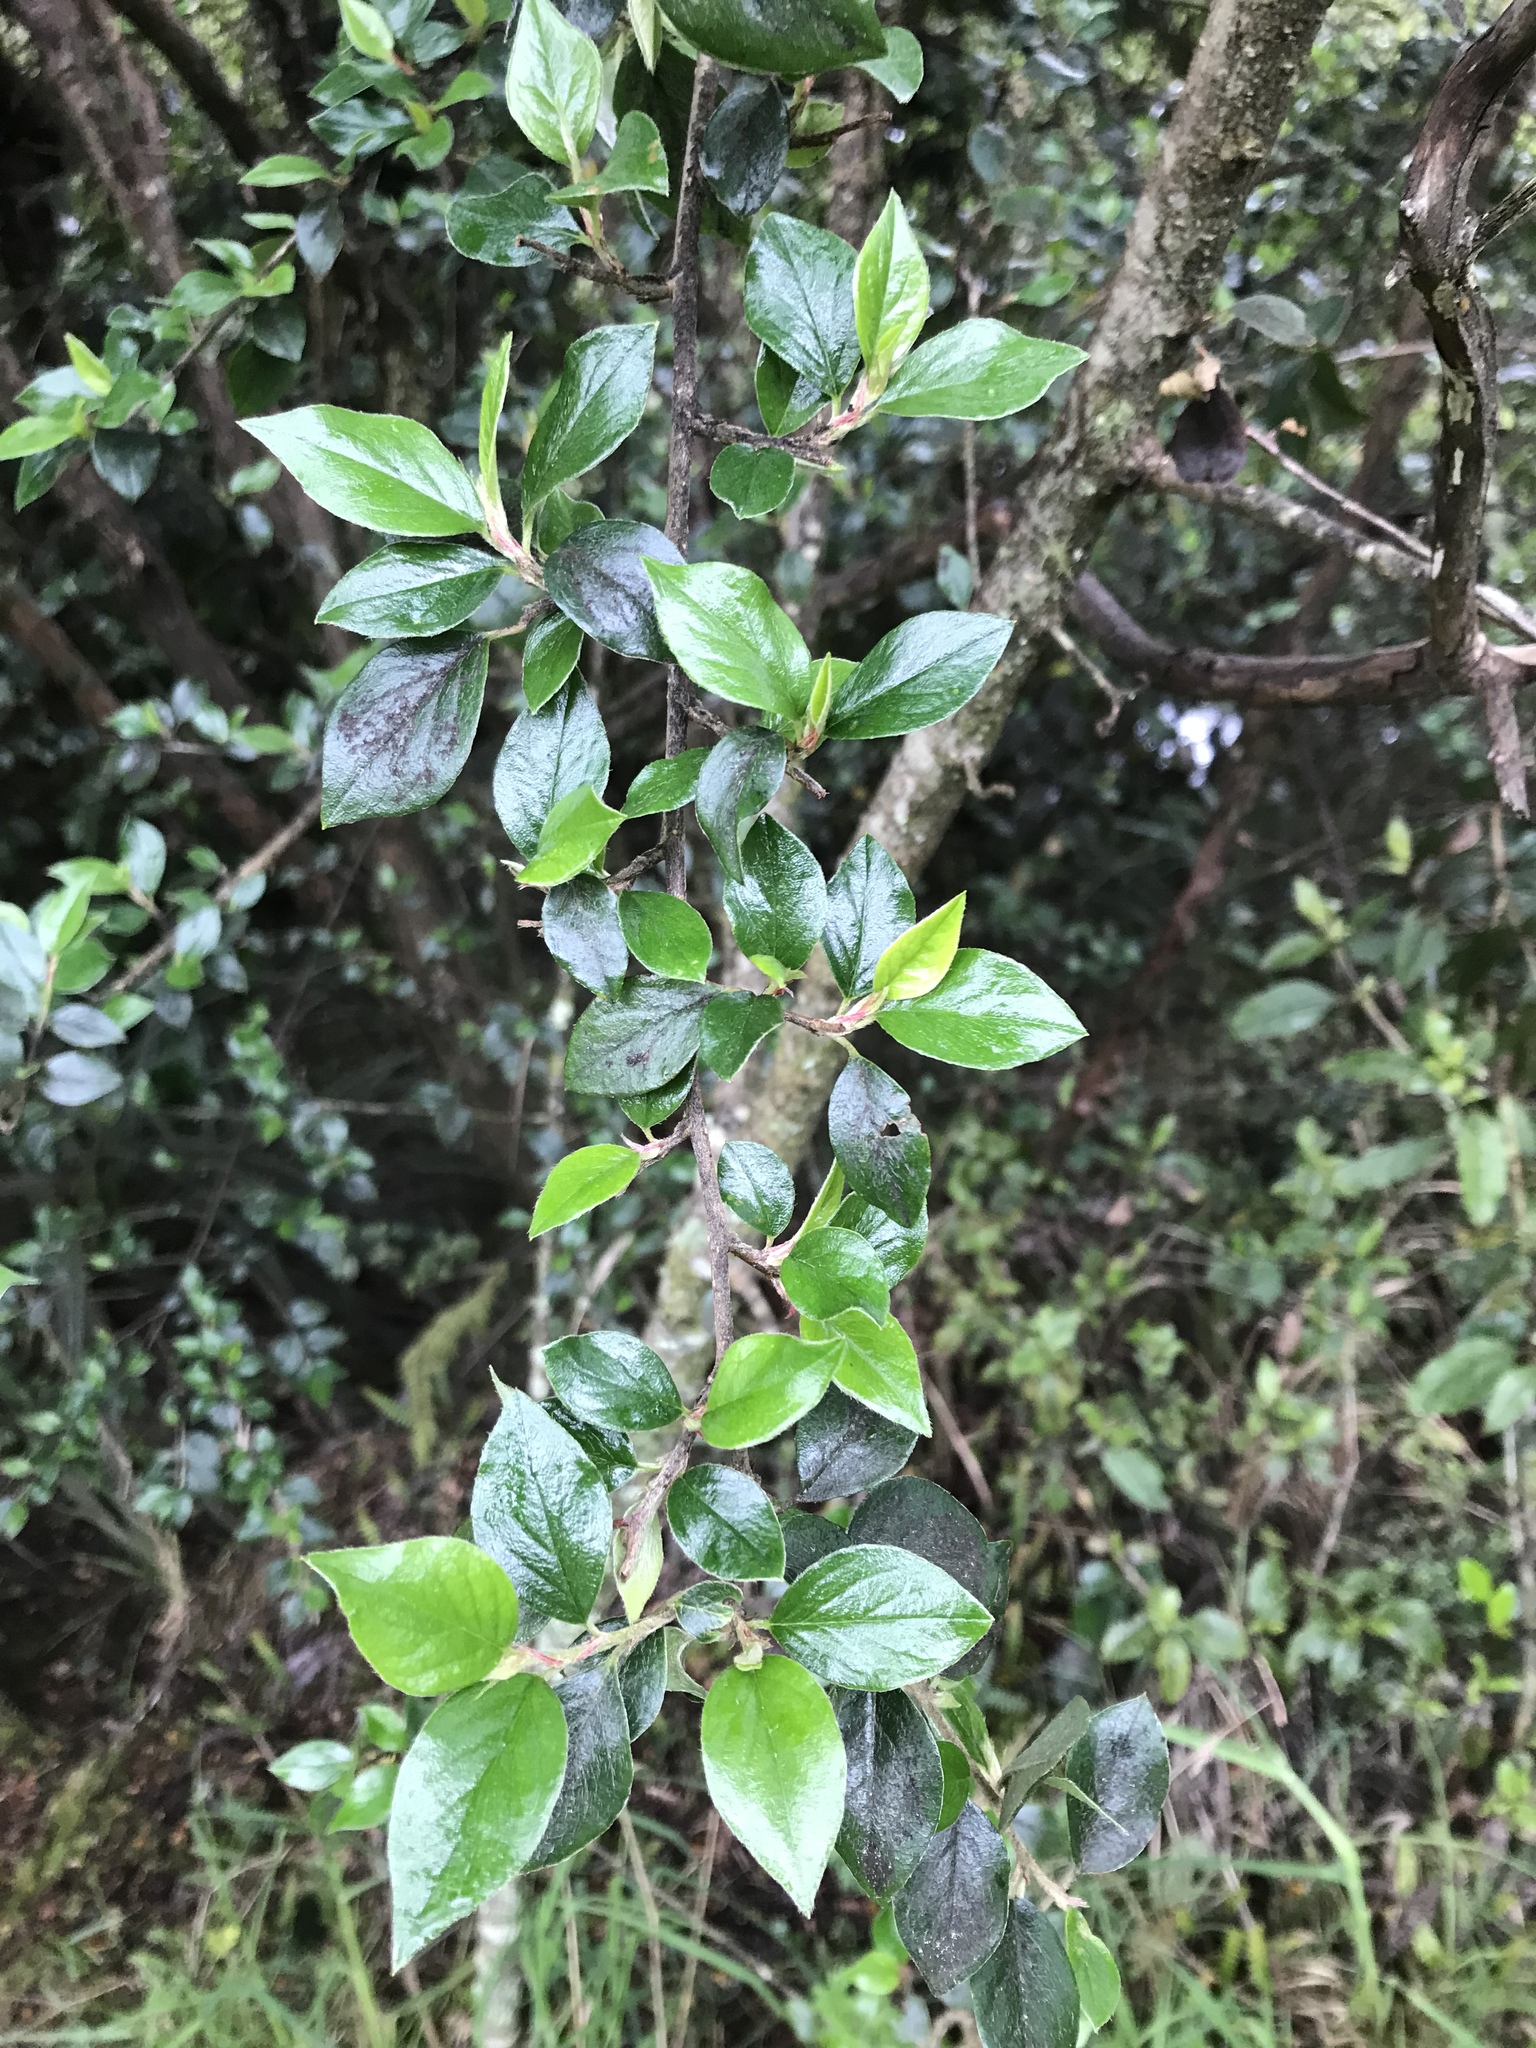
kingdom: Plantae
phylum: Tracheophyta
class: Magnoliopsida
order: Rosales
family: Rosaceae
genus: Cotoneaster
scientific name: Cotoneaster simonsii
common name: Himalayan cotoneaster
